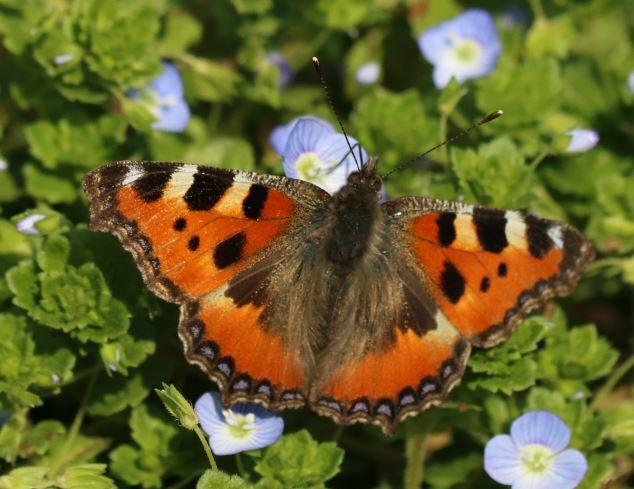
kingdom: Animalia
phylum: Arthropoda
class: Insecta
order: Lepidoptera
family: Nymphalidae
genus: Aglais
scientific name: Aglais urticae
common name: Small tortoiseshell
